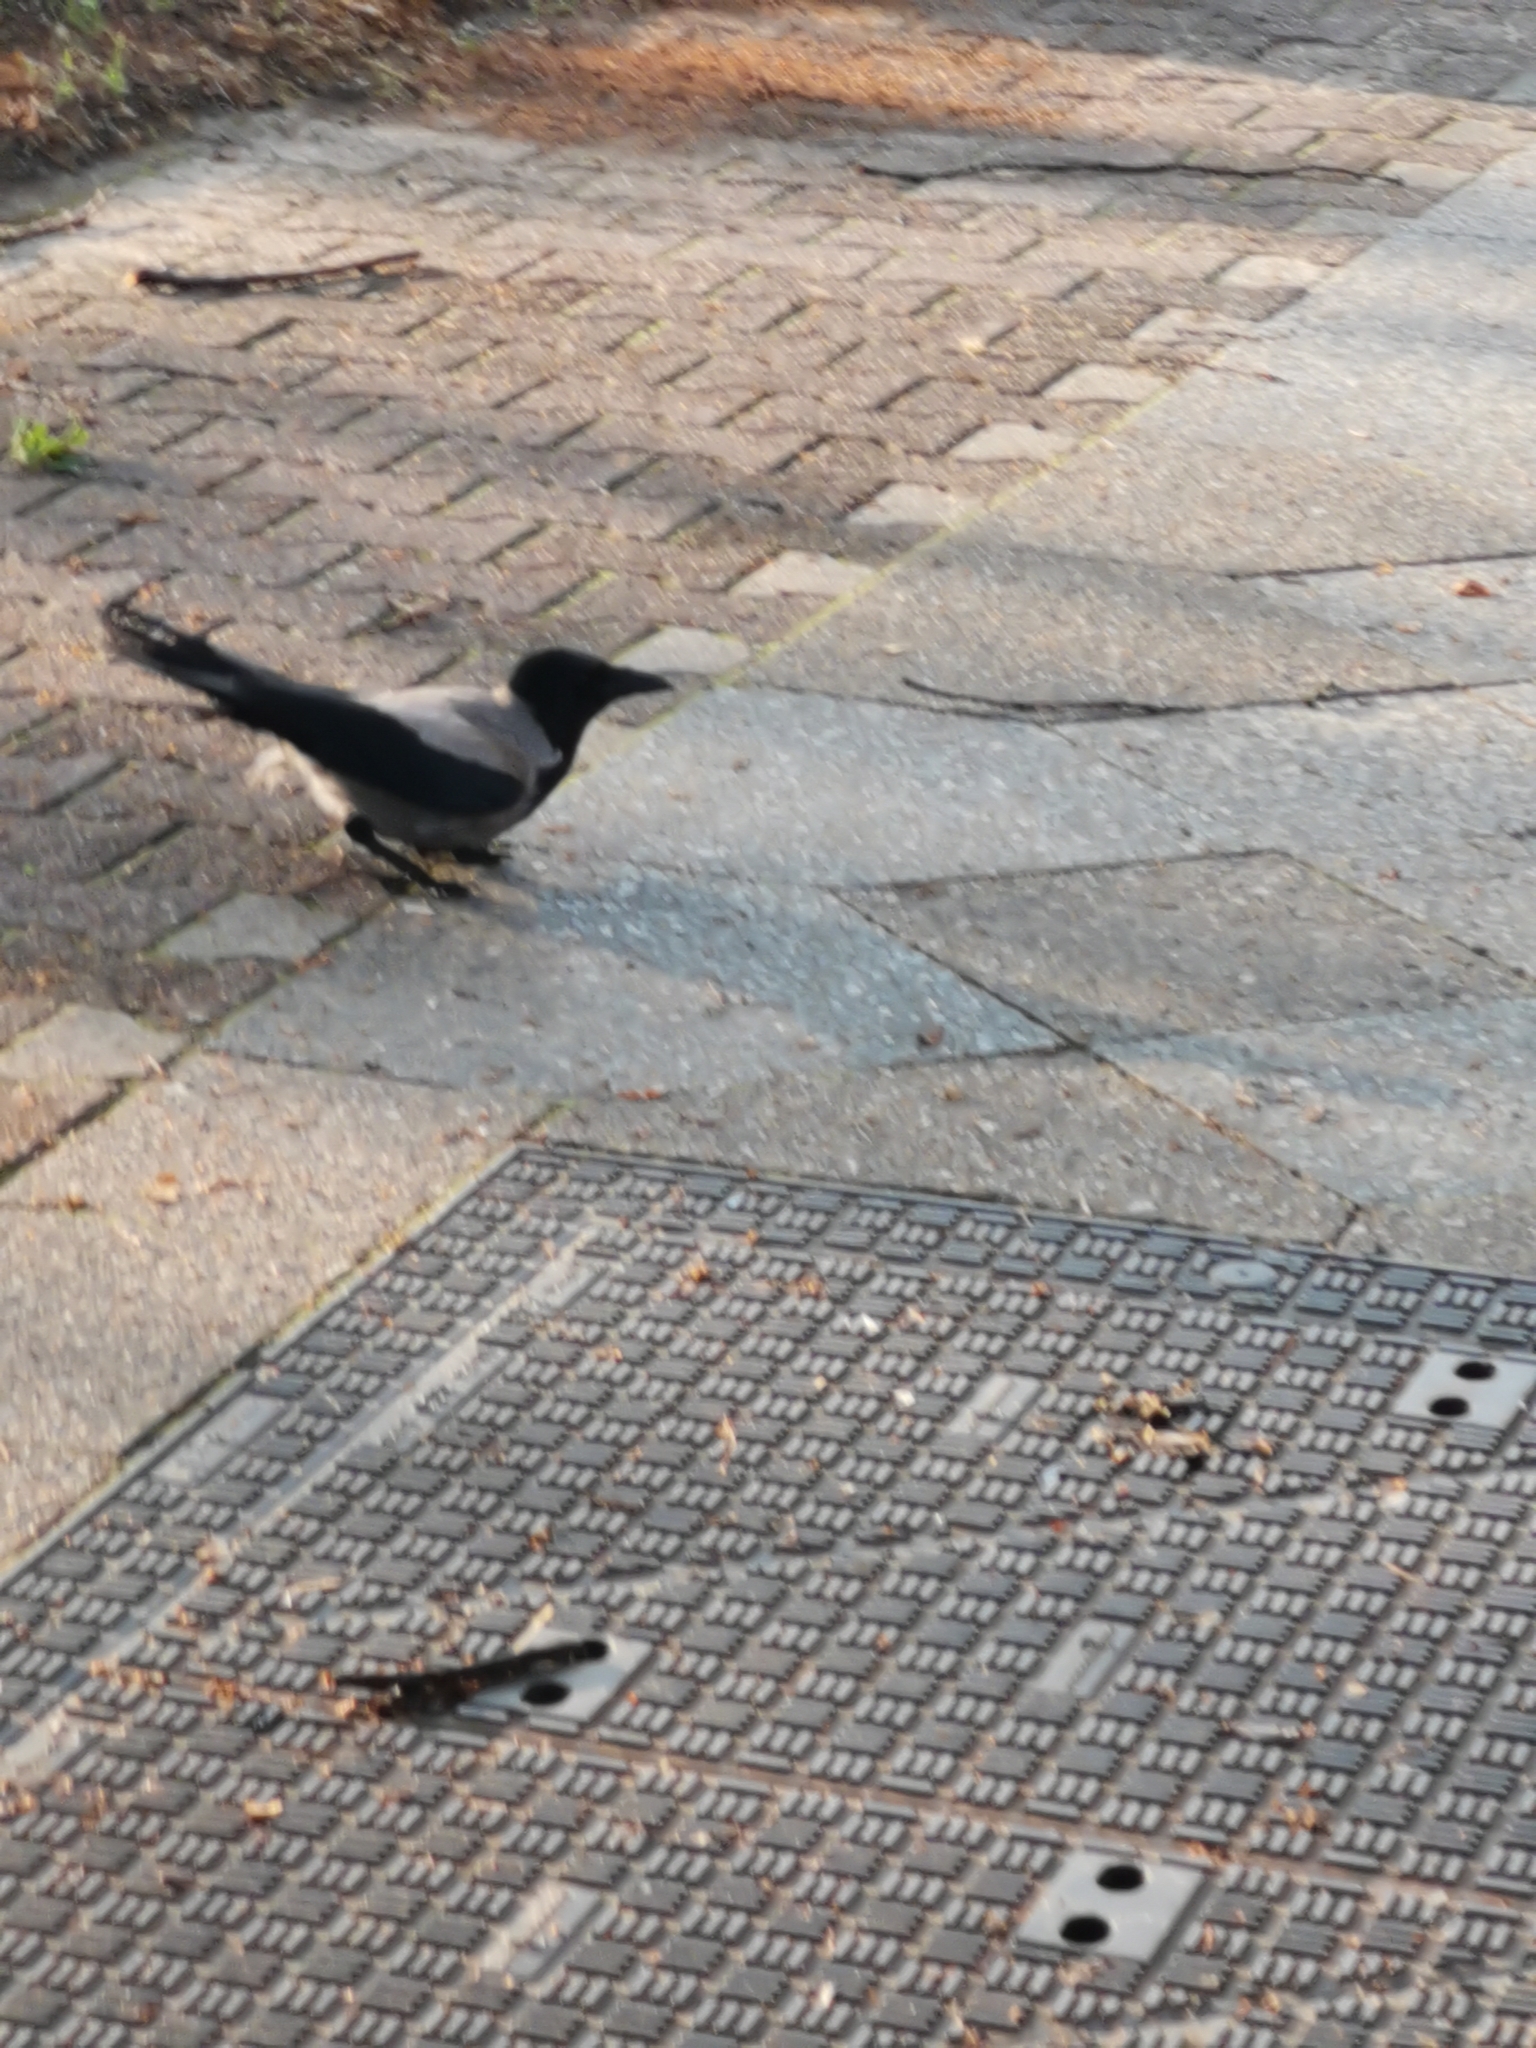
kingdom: Animalia
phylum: Chordata
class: Aves
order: Passeriformes
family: Corvidae
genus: Corvus
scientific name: Corvus cornix
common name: Hooded crow
